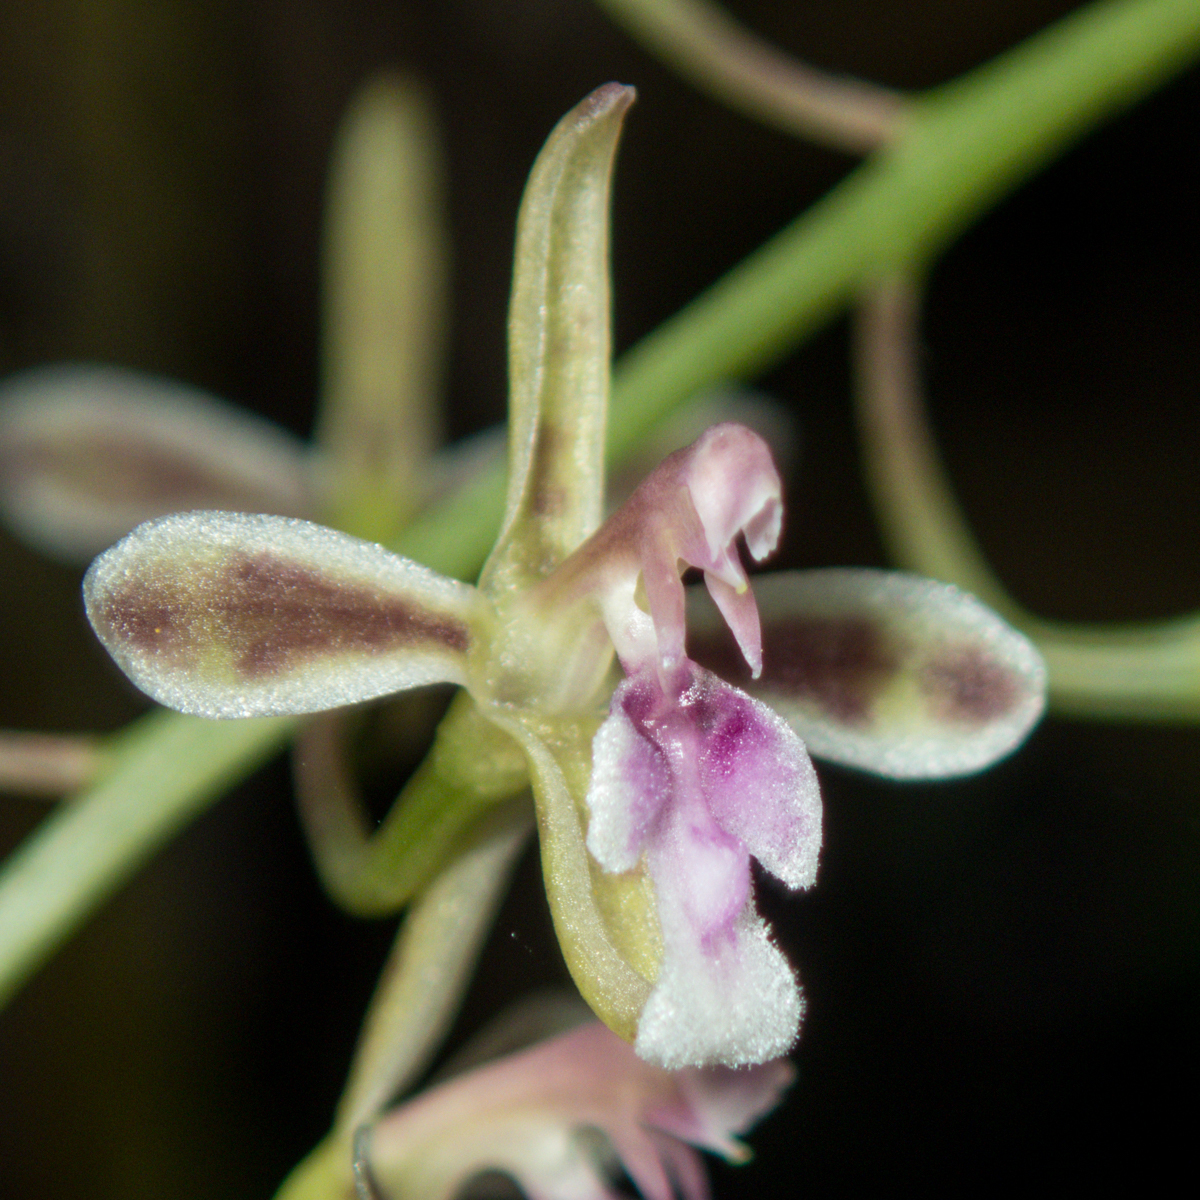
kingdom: Plantae
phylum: Tracheophyta
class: Liliopsida
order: Asparagales
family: Orchidaceae
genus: Acriopsis
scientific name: Acriopsis liliifolia
